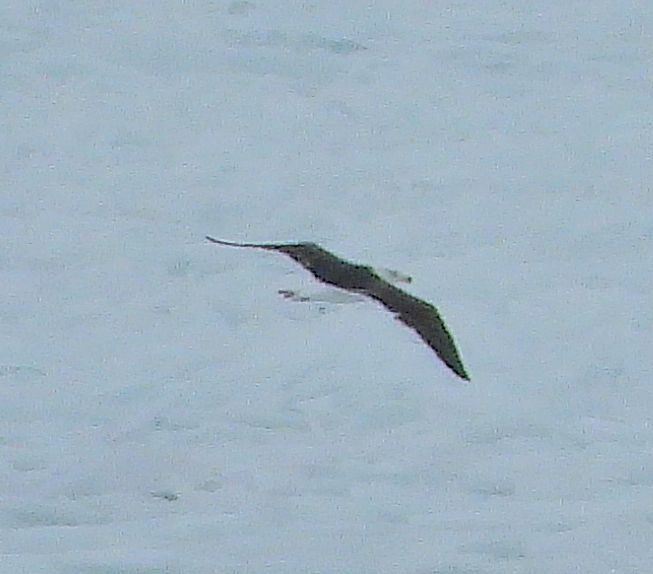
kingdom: Animalia
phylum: Chordata
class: Aves
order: Charadriiformes
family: Laridae
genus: Larus
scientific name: Larus marinus
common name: Great black-backed gull
